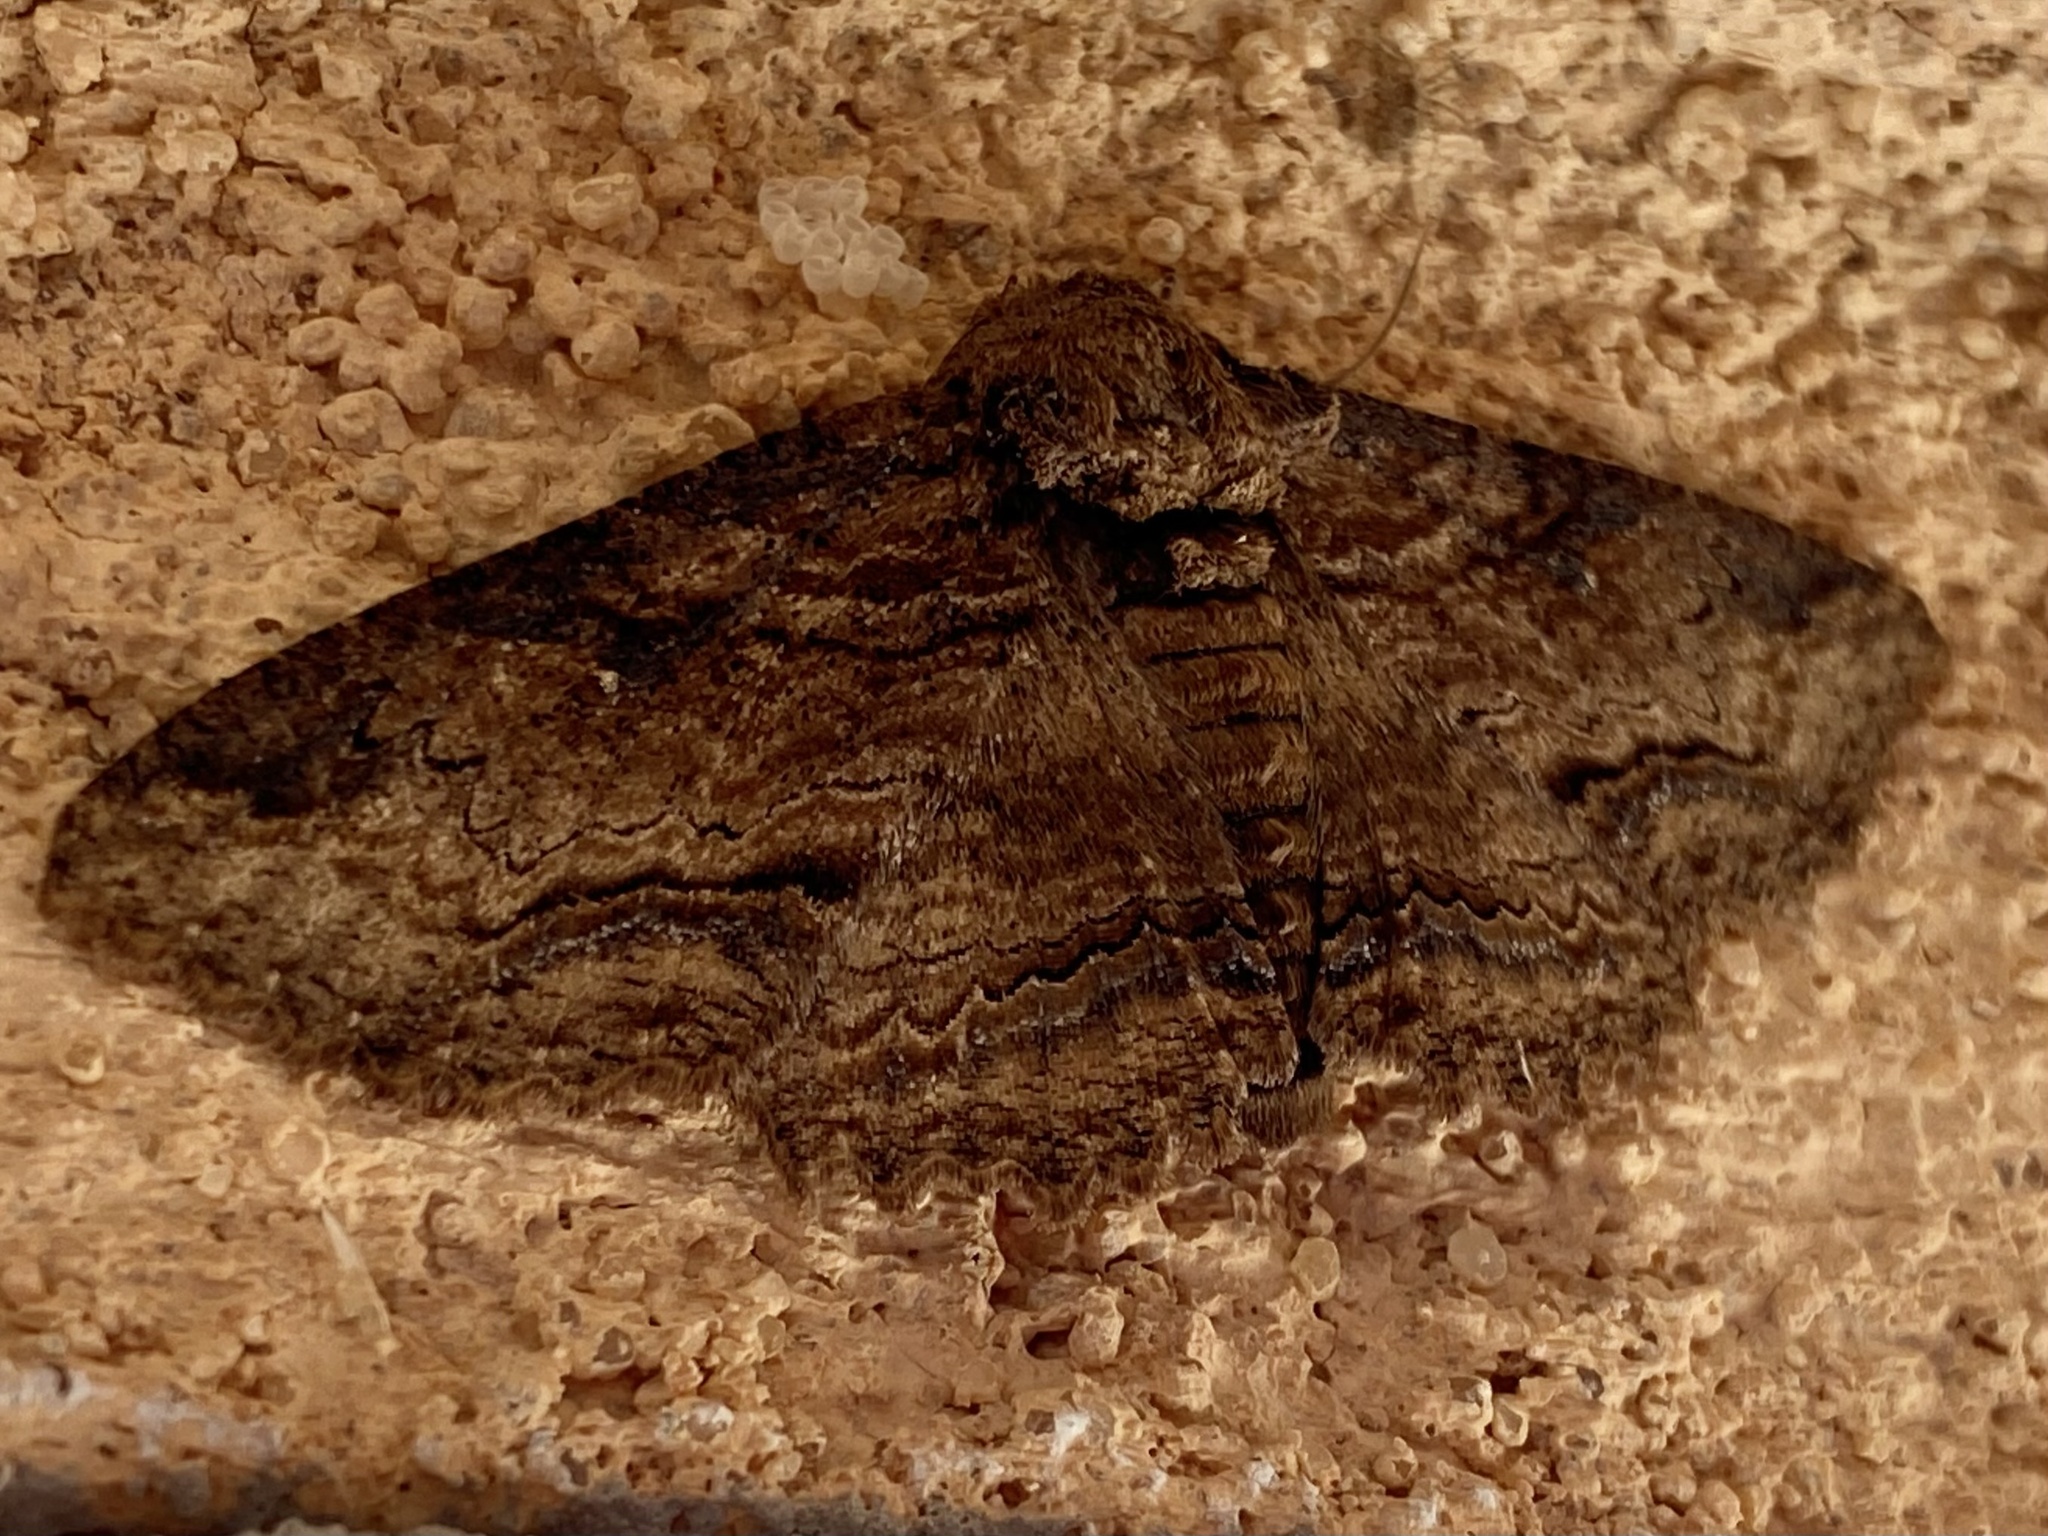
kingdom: Animalia
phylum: Arthropoda
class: Insecta
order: Lepidoptera
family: Erebidae
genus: Zale
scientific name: Zale lunata
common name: Lunate zale moth
